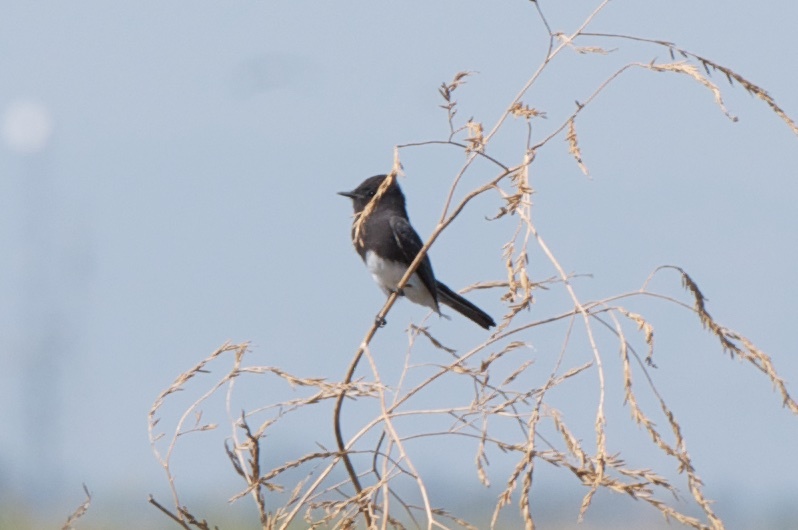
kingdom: Animalia
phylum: Chordata
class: Aves
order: Passeriformes
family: Tyrannidae
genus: Sayornis
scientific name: Sayornis nigricans
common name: Black phoebe
